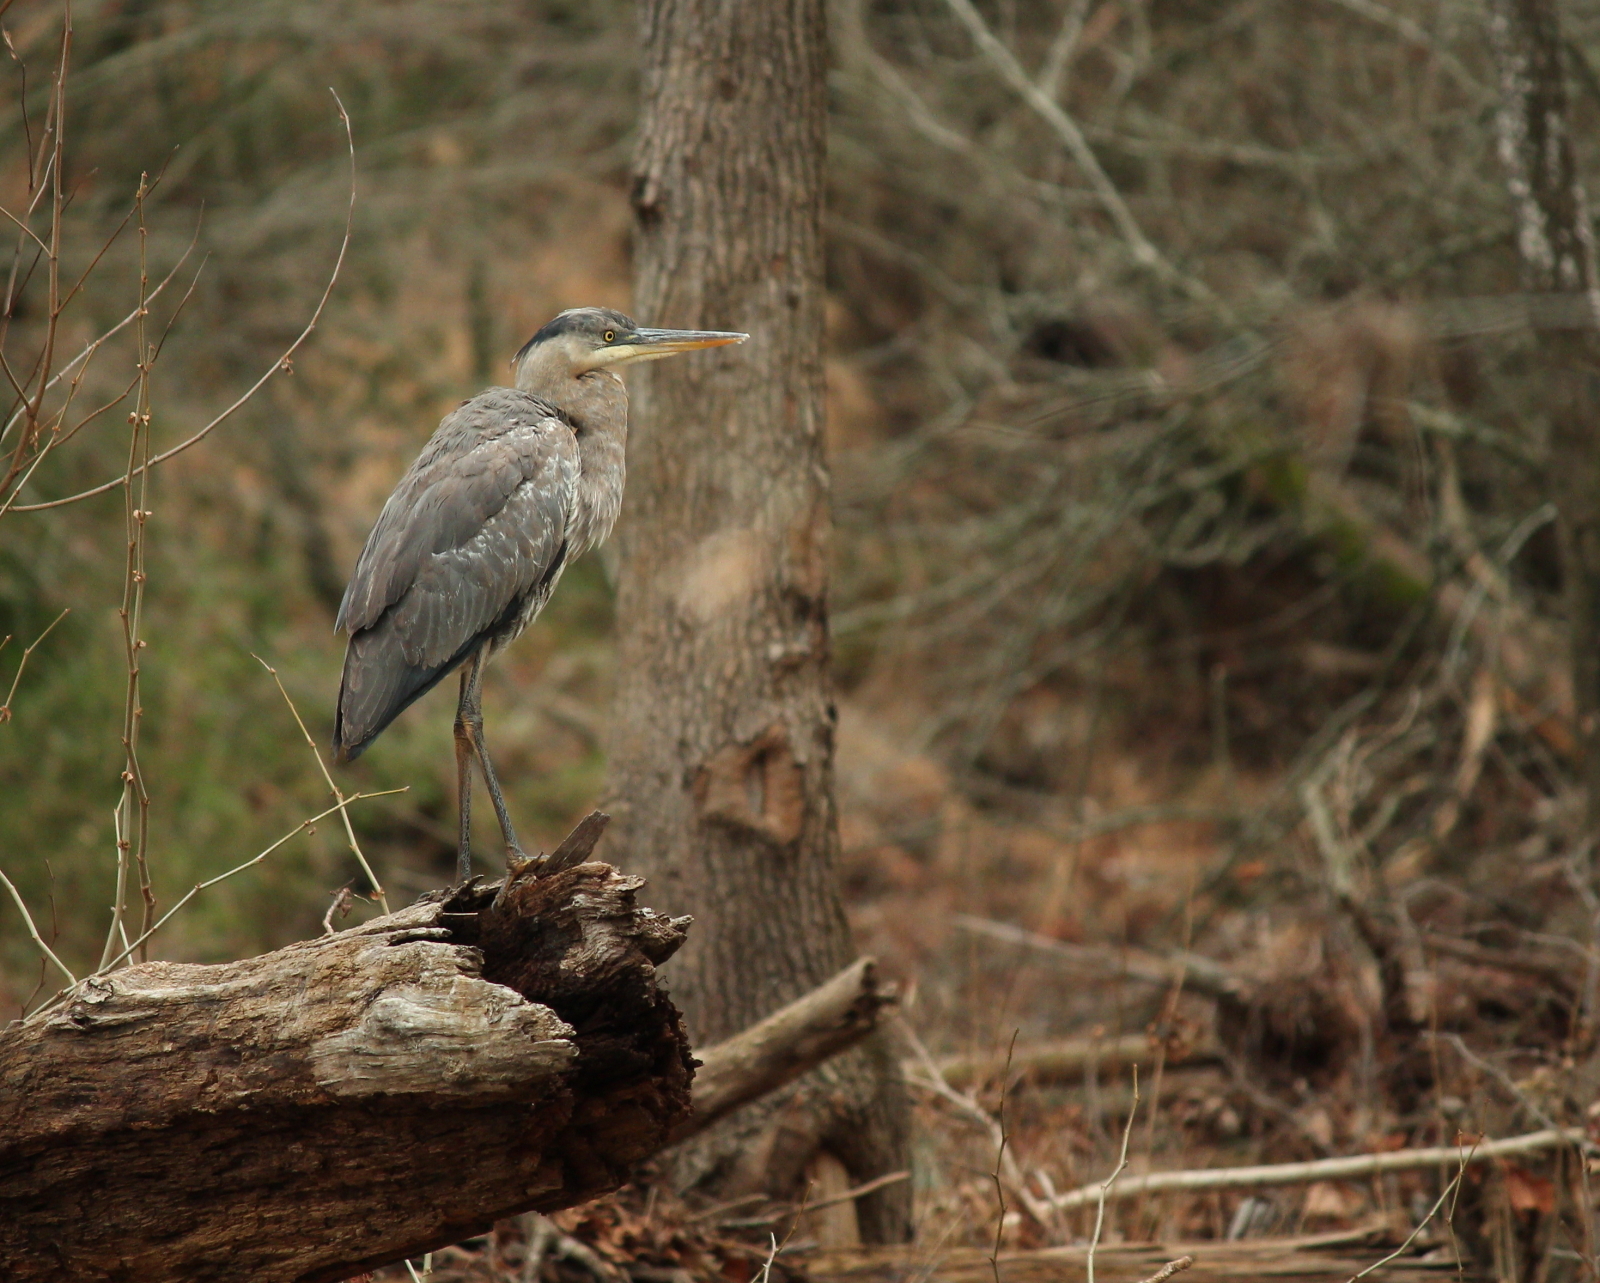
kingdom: Animalia
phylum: Chordata
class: Aves
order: Pelecaniformes
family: Ardeidae
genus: Ardea
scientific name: Ardea herodias
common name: Great blue heron
